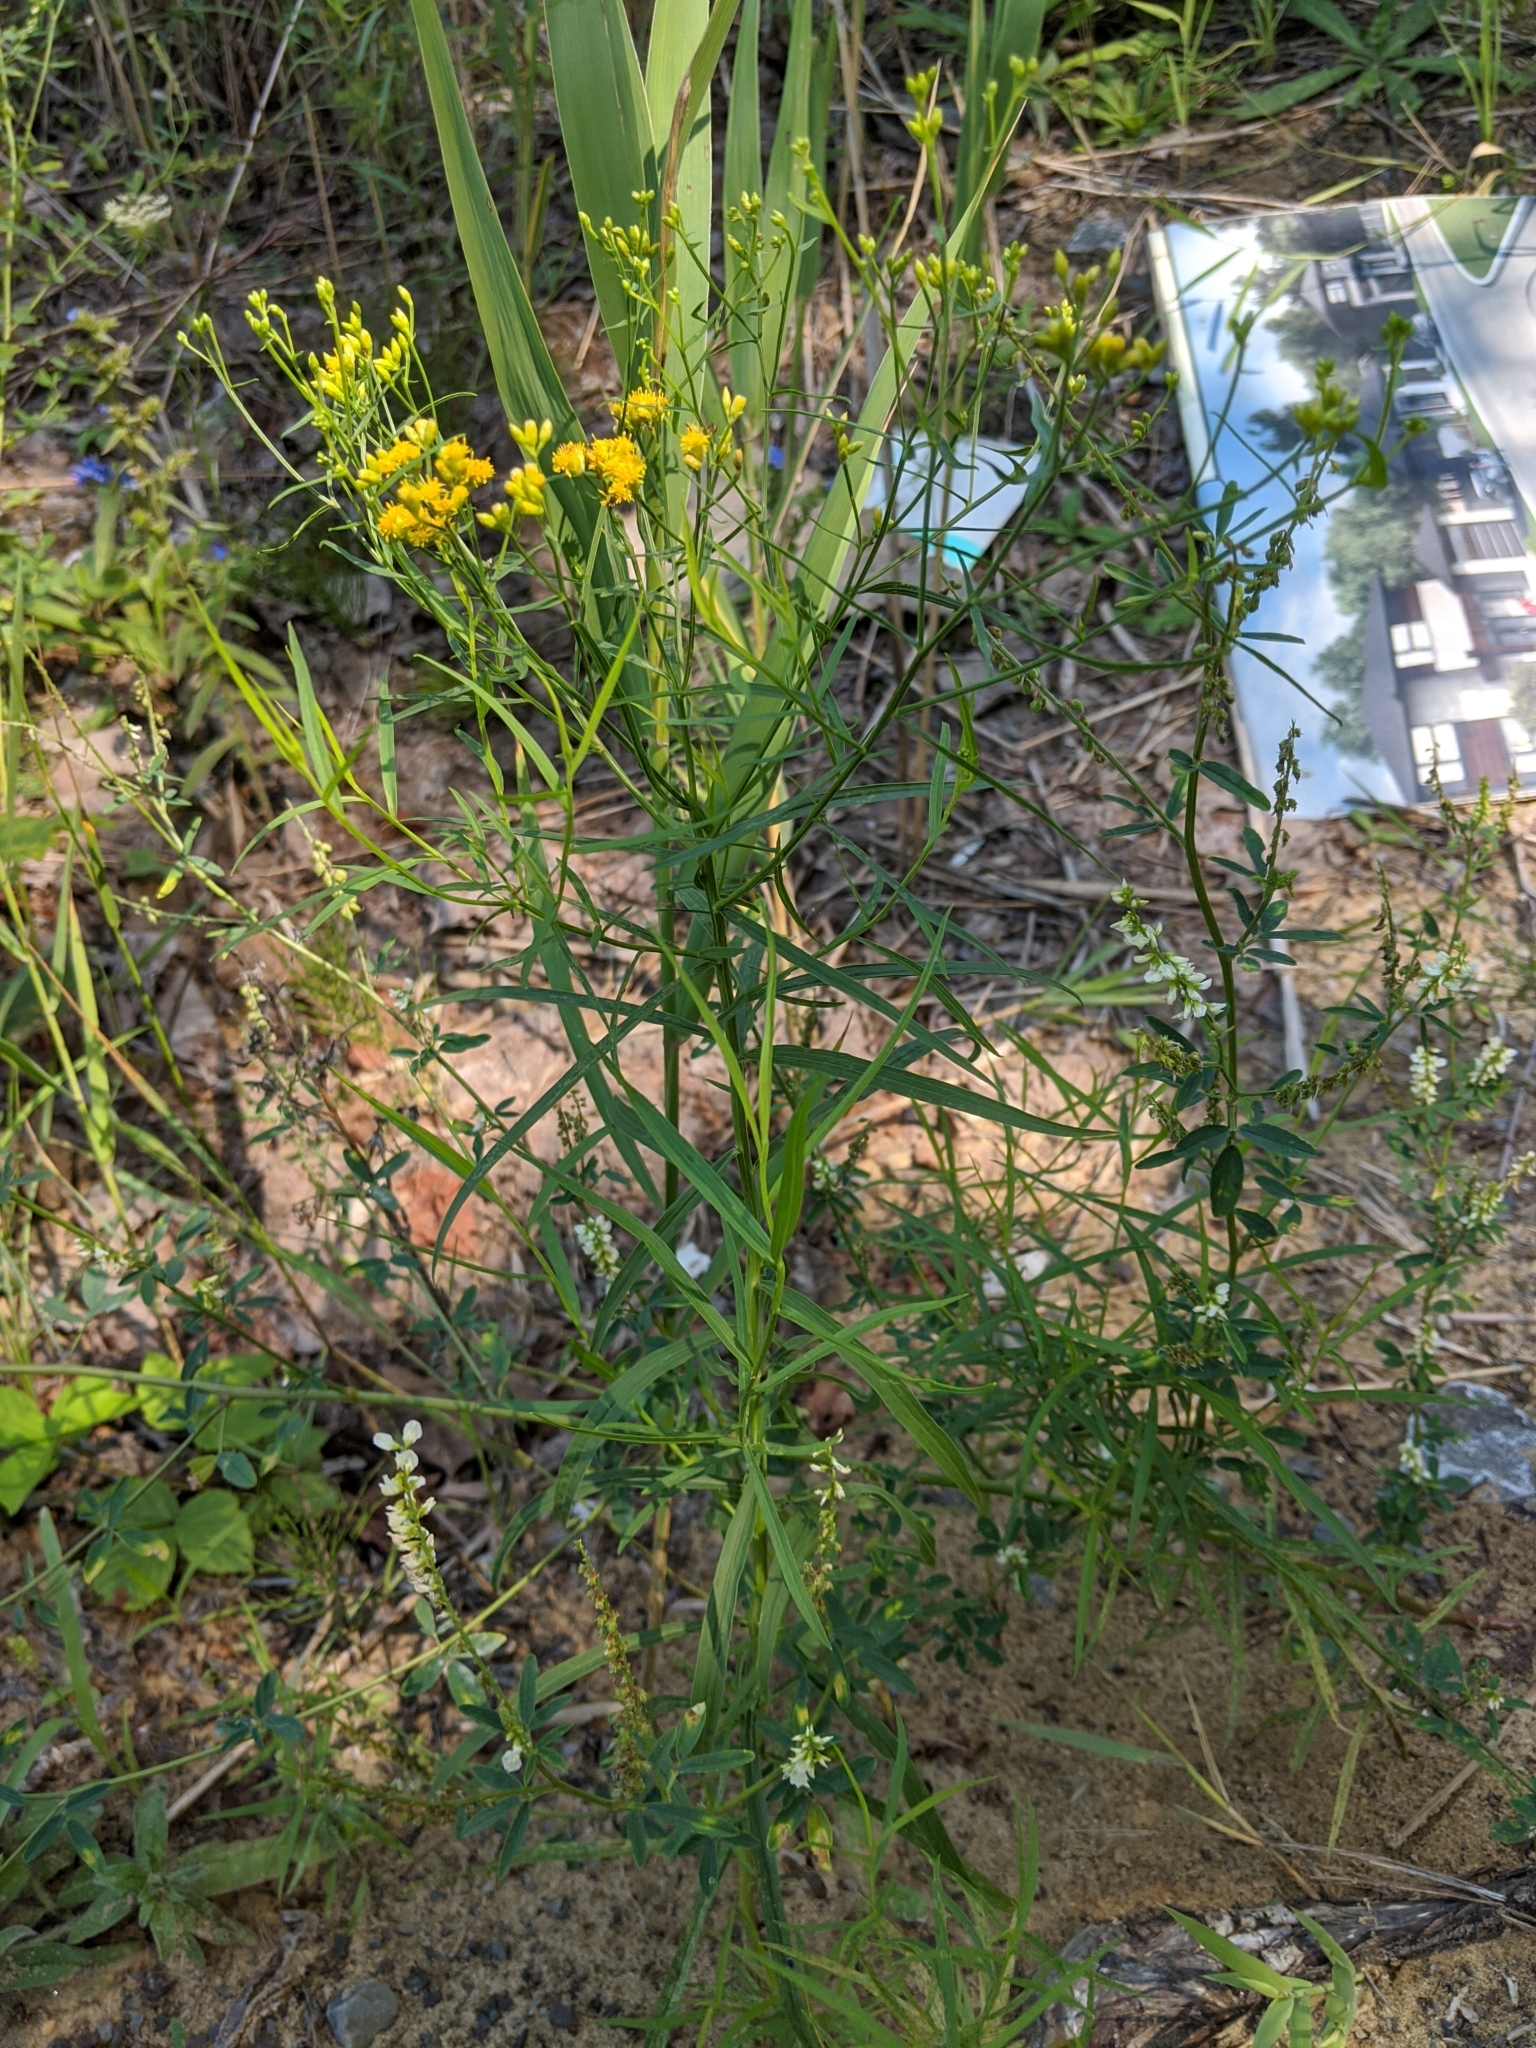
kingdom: Plantae
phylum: Tracheophyta
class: Magnoliopsida
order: Asterales
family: Asteraceae
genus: Euthamia
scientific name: Euthamia graminifolia
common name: Common goldentop
